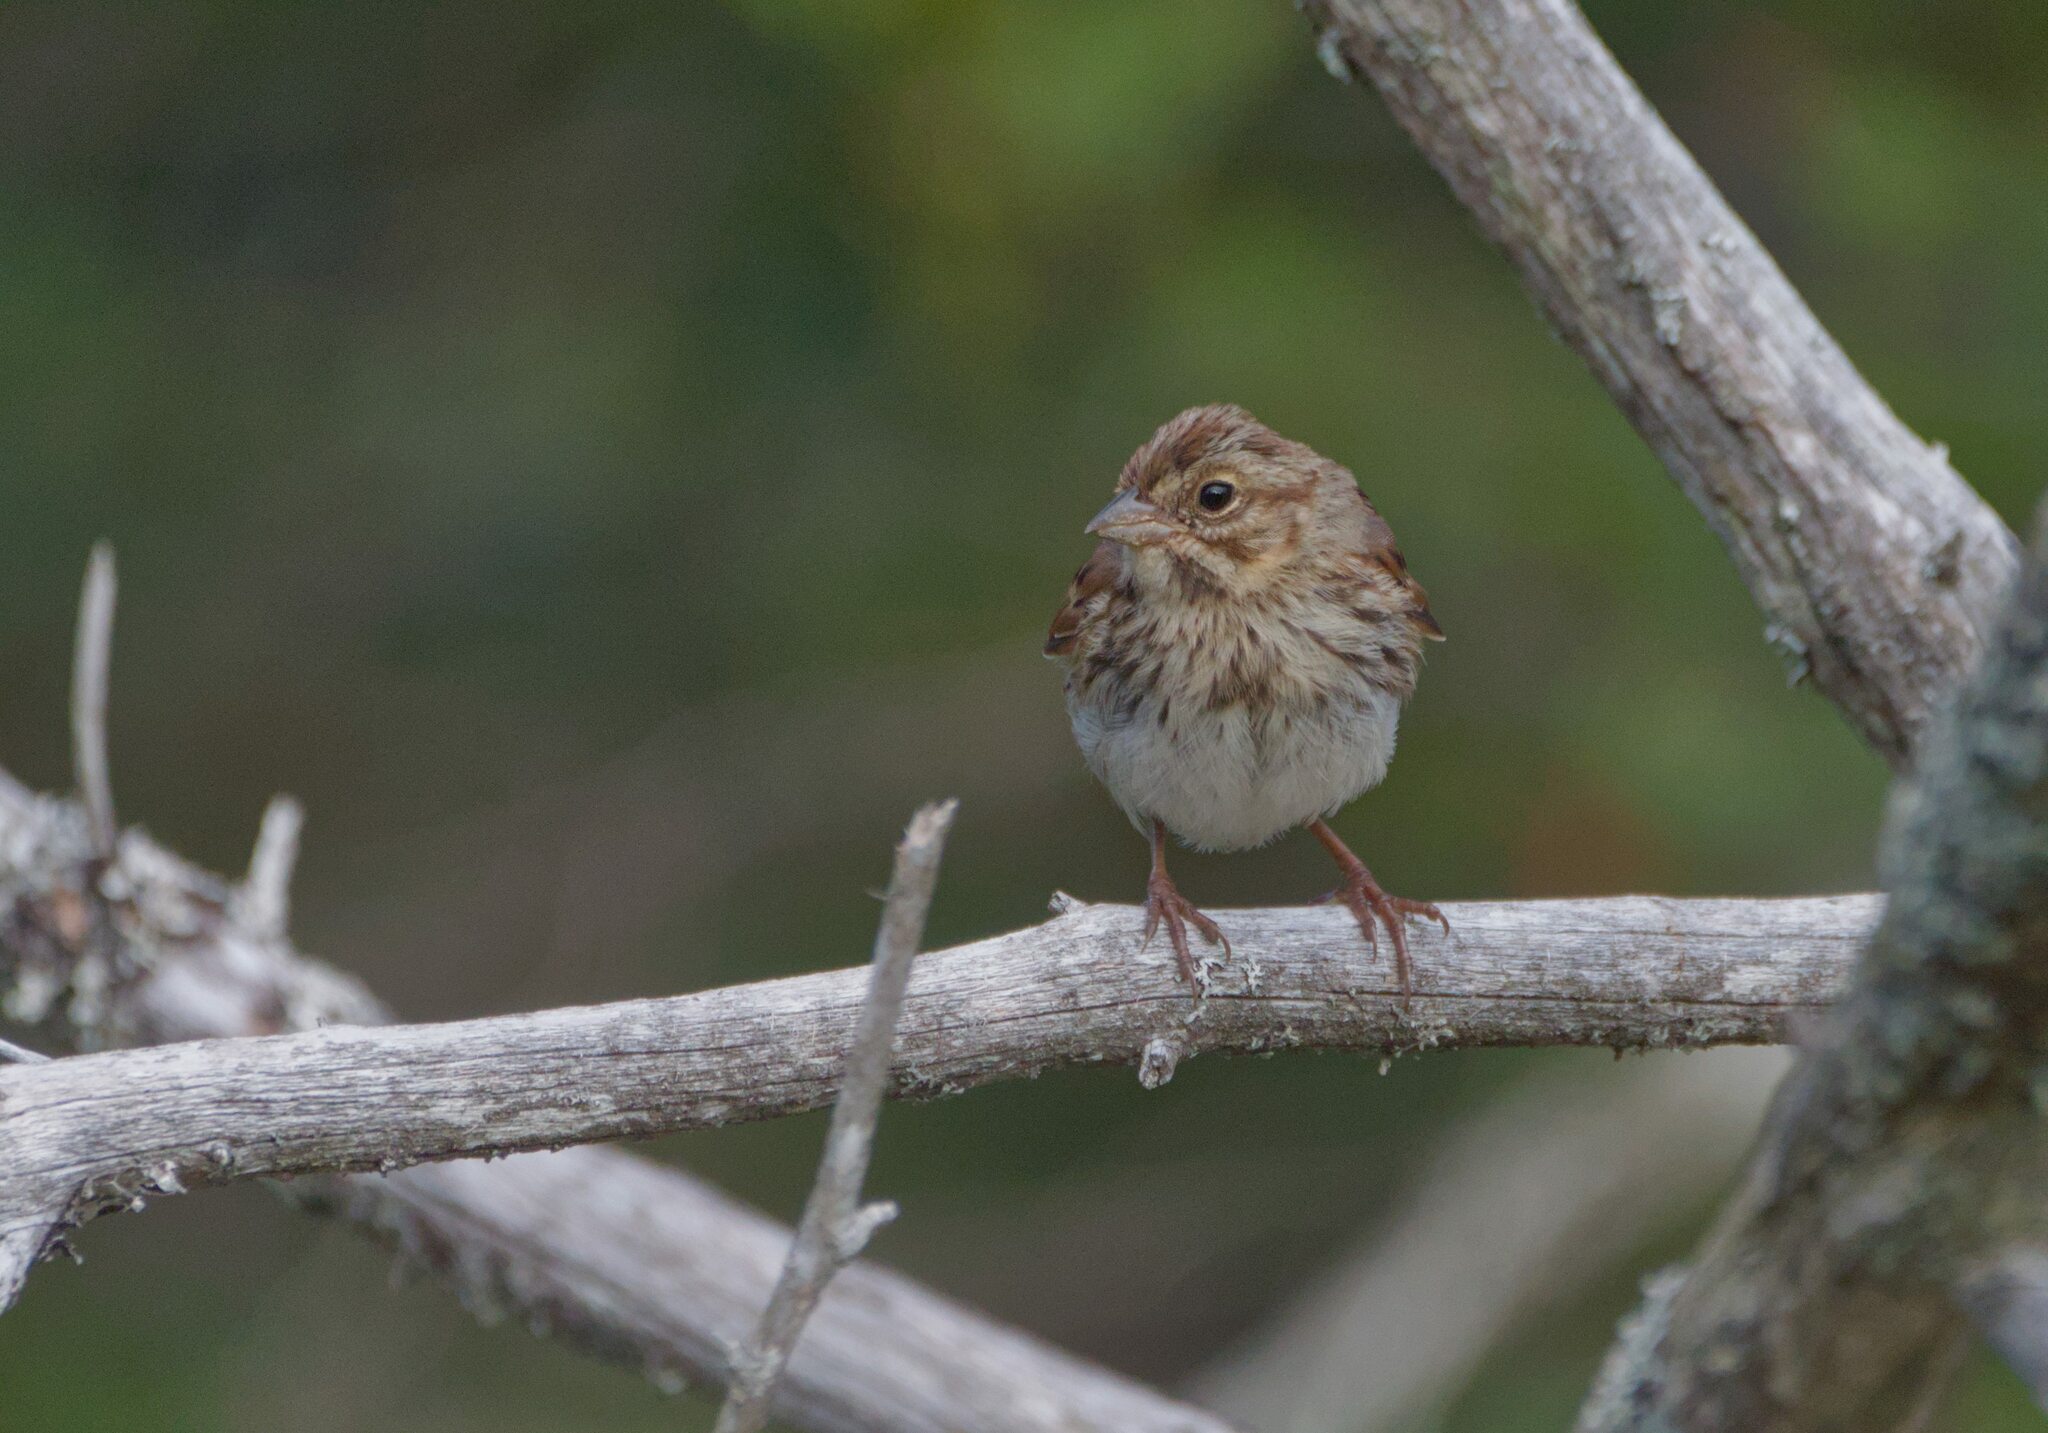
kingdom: Animalia
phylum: Chordata
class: Aves
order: Passeriformes
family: Passerellidae
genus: Melospiza
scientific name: Melospiza melodia
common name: Song sparrow
